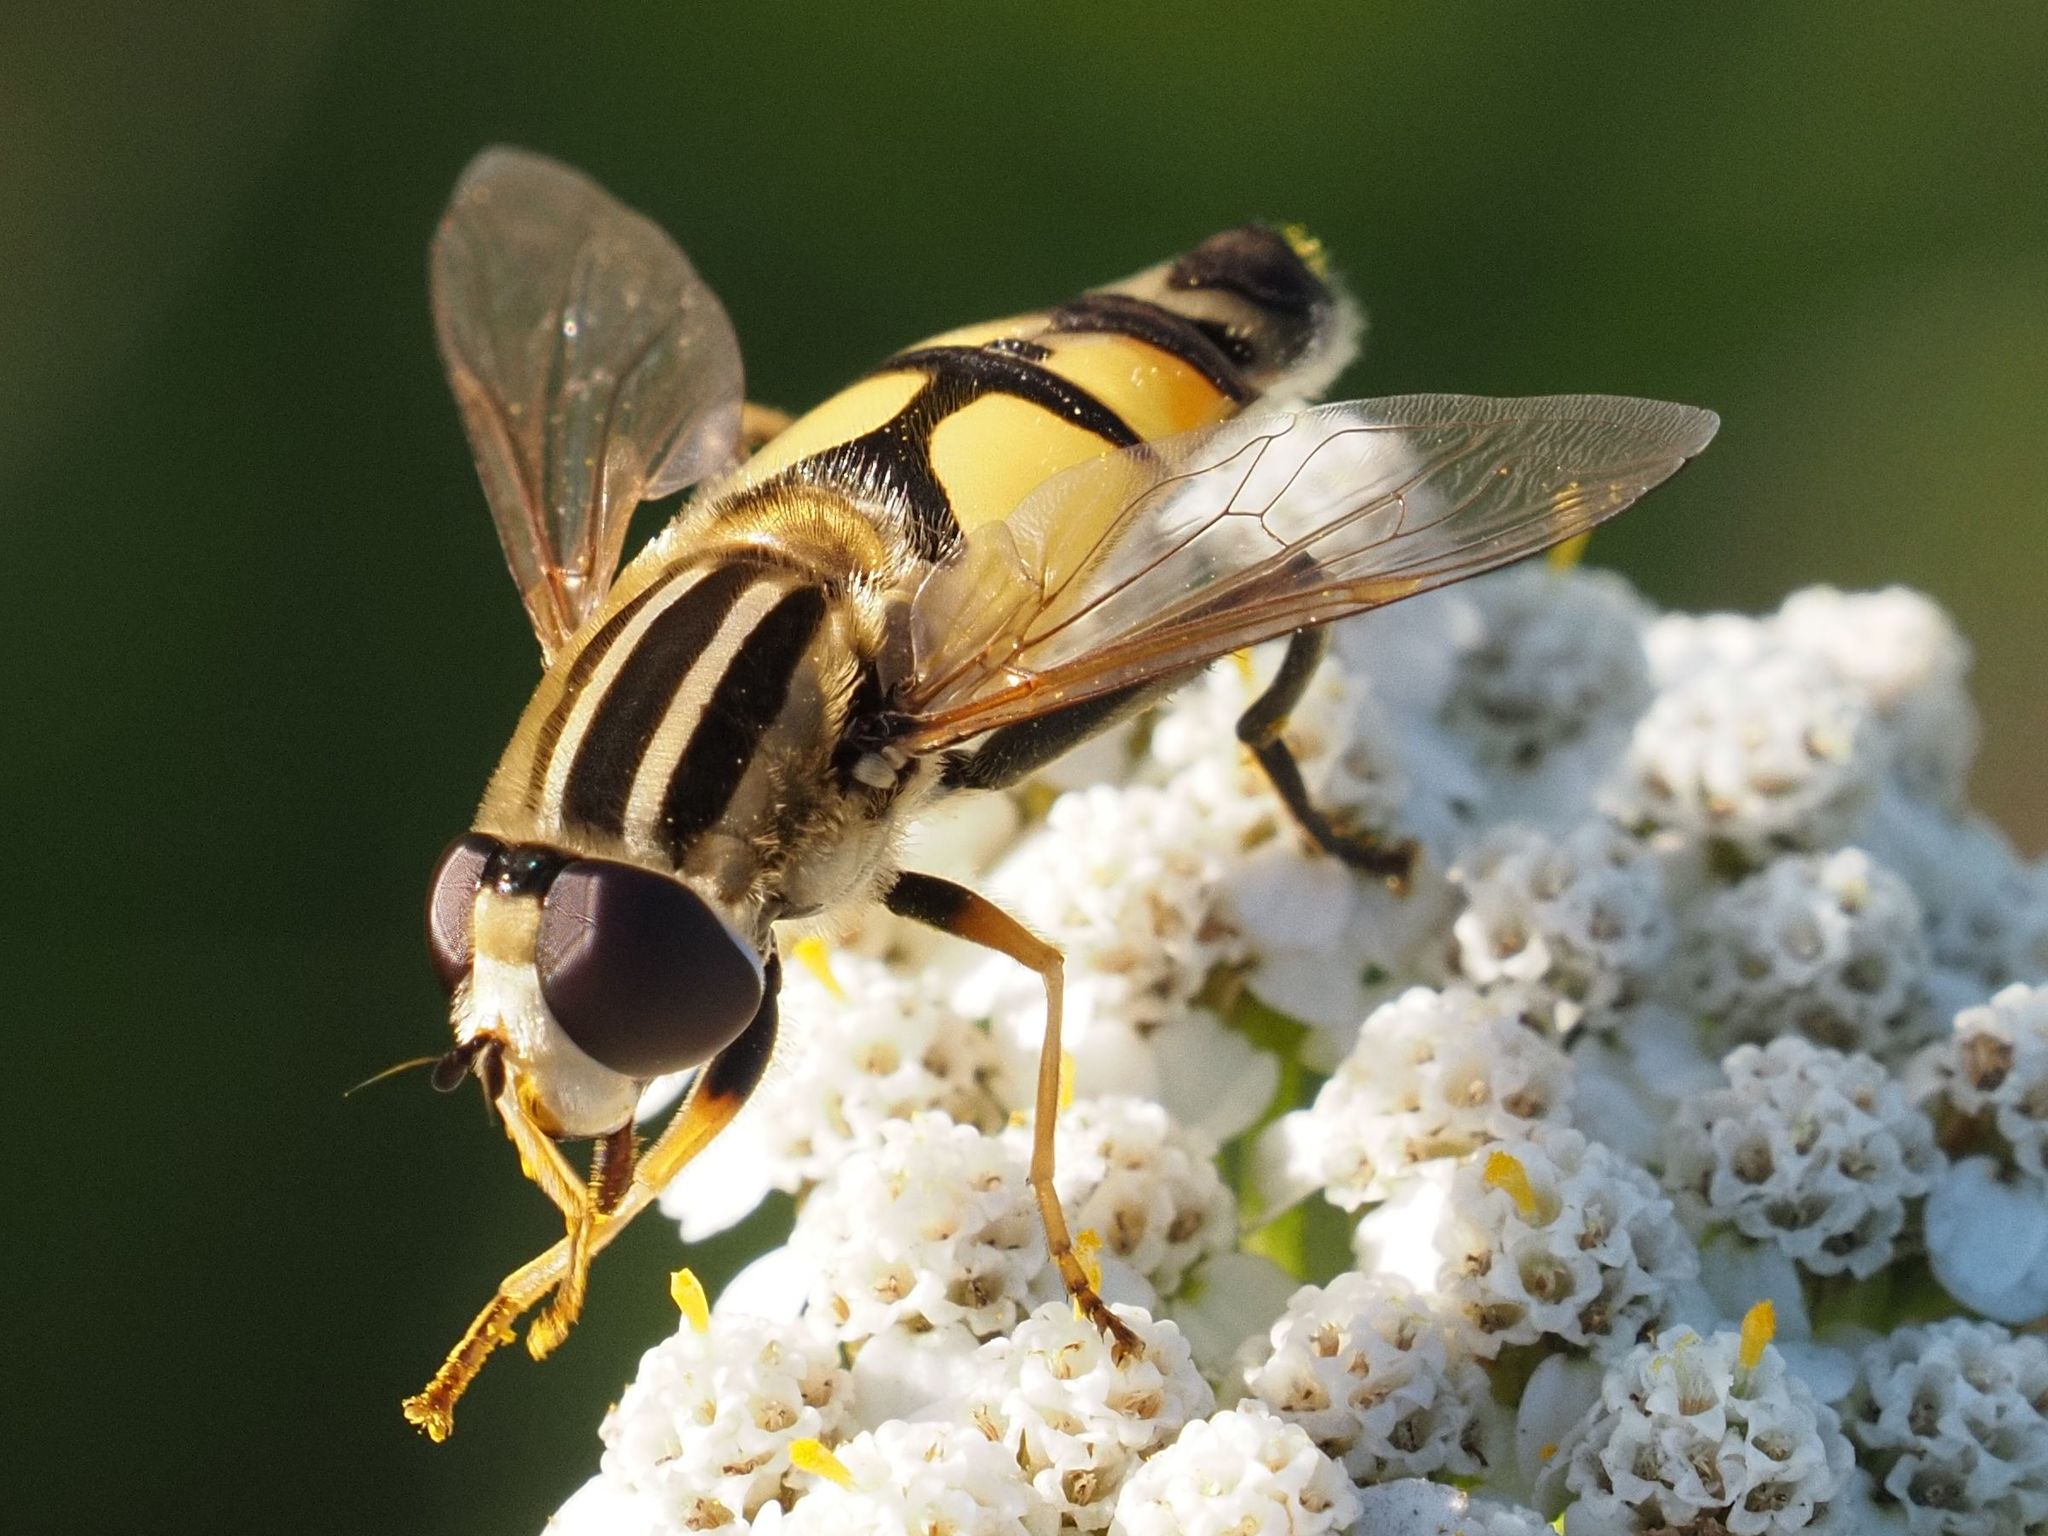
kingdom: Animalia
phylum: Arthropoda
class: Insecta
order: Diptera
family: Syrphidae
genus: Helophilus
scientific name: Helophilus trivittatus
